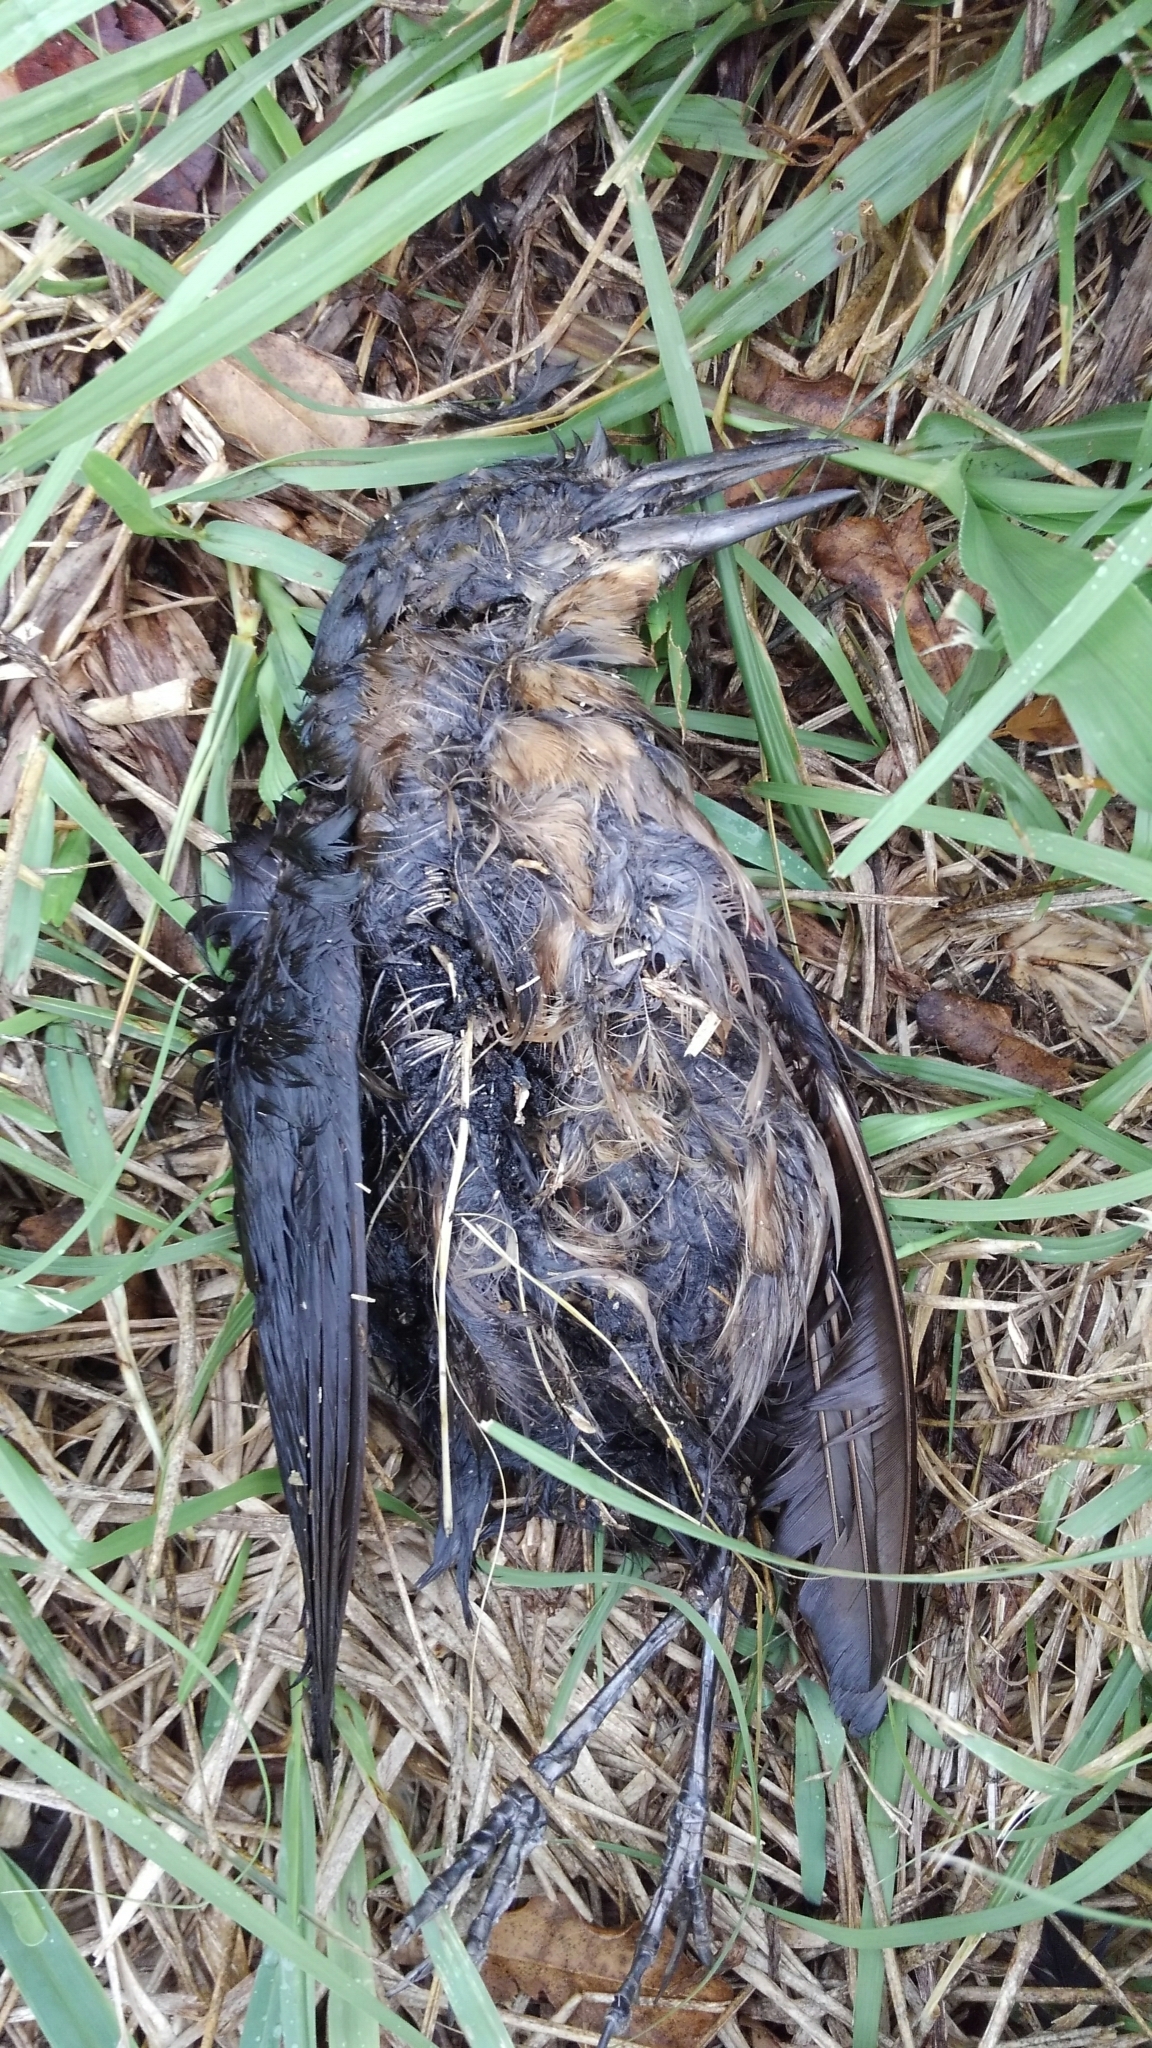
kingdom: Animalia
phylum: Chordata
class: Aves
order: Passeriformes
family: Icteridae
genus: Quiscalus
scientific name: Quiscalus major
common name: Boat-tailed grackle
